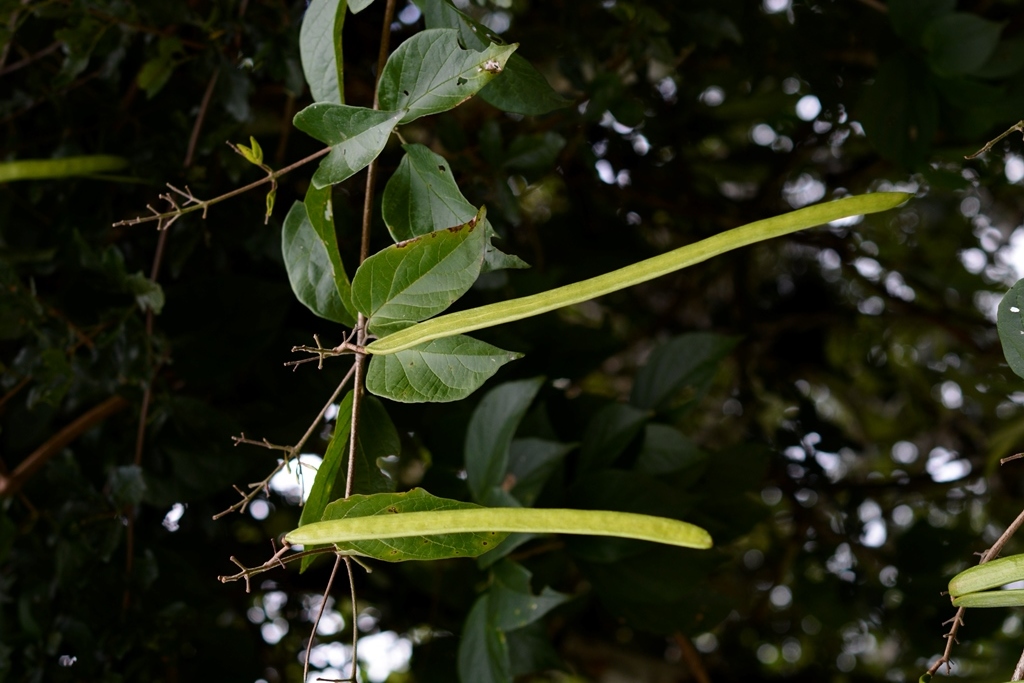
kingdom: Plantae
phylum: Tracheophyta
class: Magnoliopsida
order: Lamiales
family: Bignoniaceae
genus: Fridericia
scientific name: Fridericia chica
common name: Cricketvine
